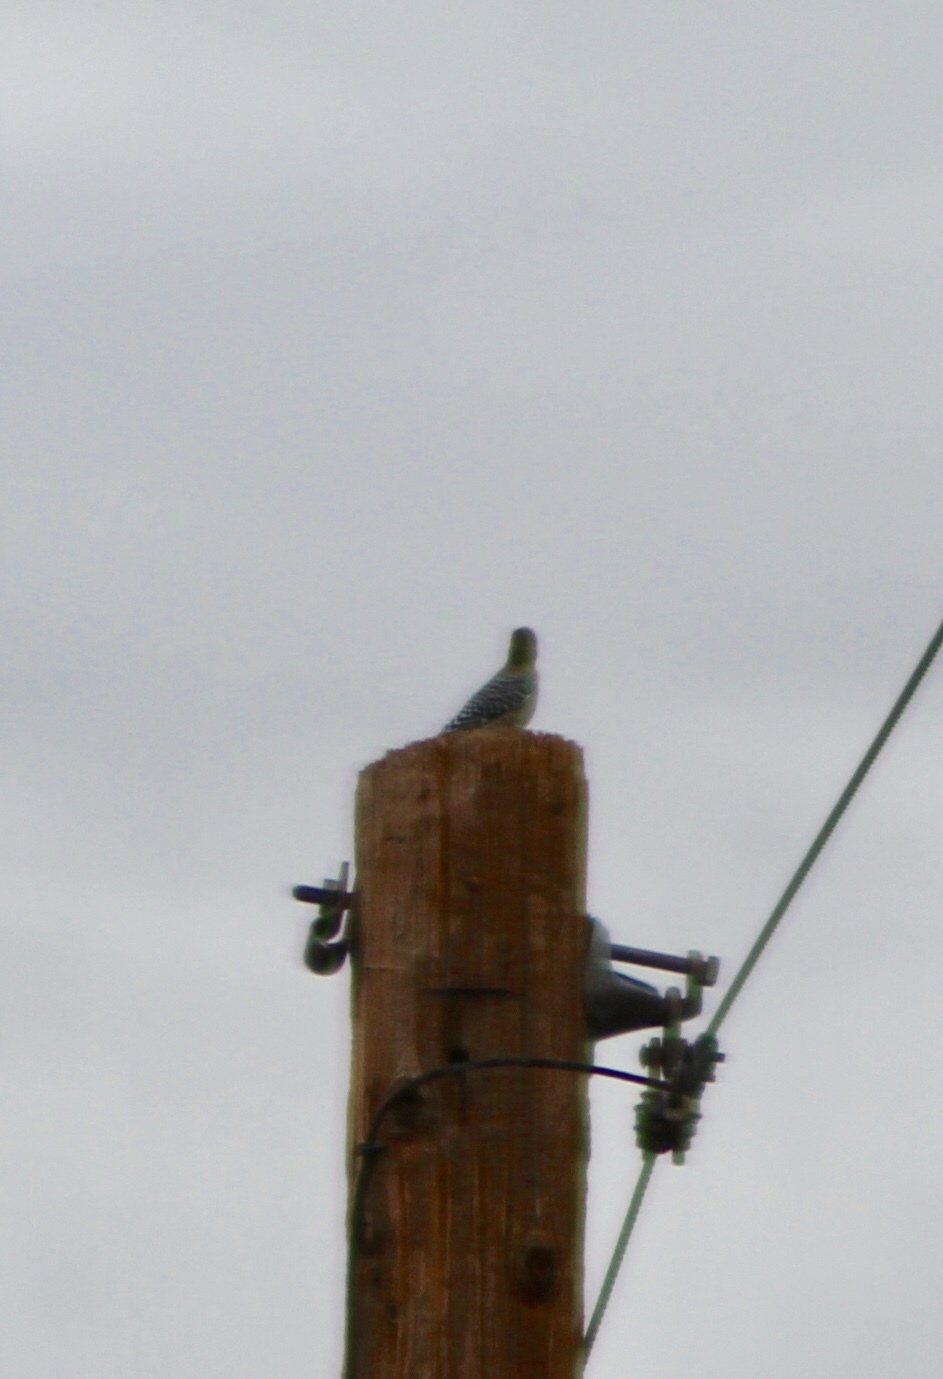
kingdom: Animalia
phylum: Chordata
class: Aves
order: Piciformes
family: Picidae
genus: Melanerpes
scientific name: Melanerpes uropygialis
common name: Gila woodpecker
